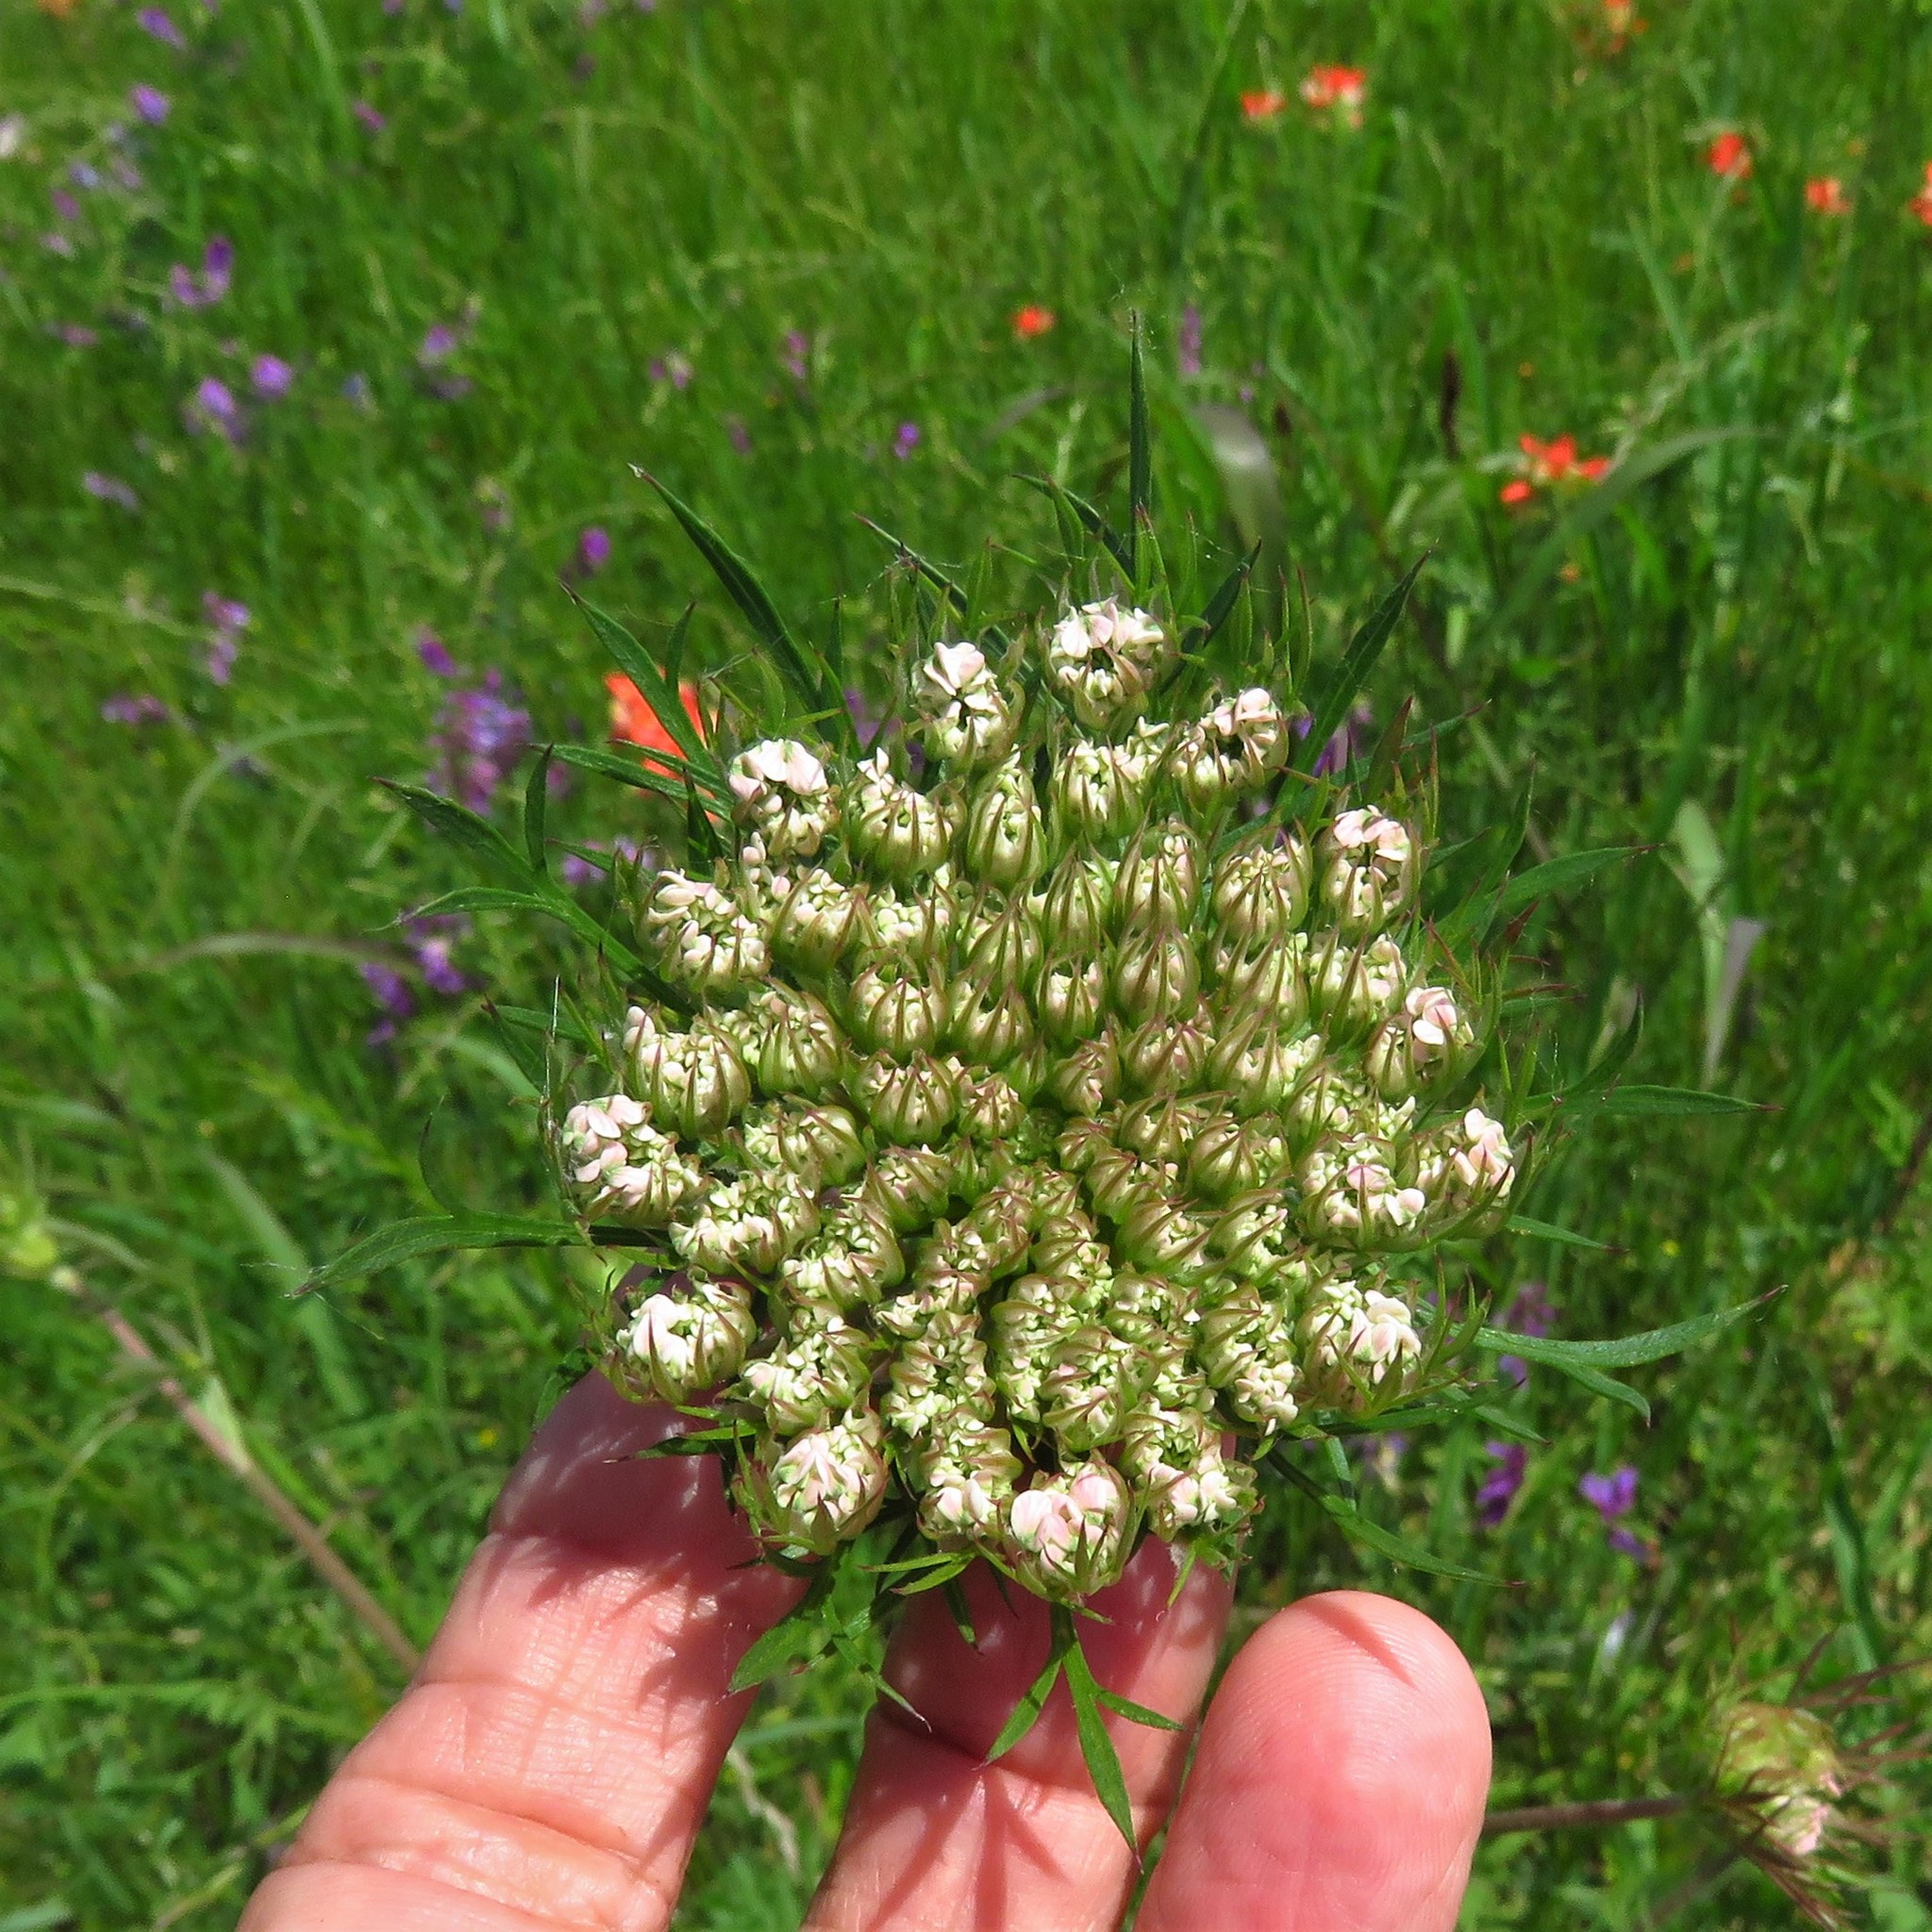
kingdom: Plantae
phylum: Tracheophyta
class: Magnoliopsida
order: Apiales
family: Apiaceae
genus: Daucus
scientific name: Daucus carota
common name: Wild carrot
